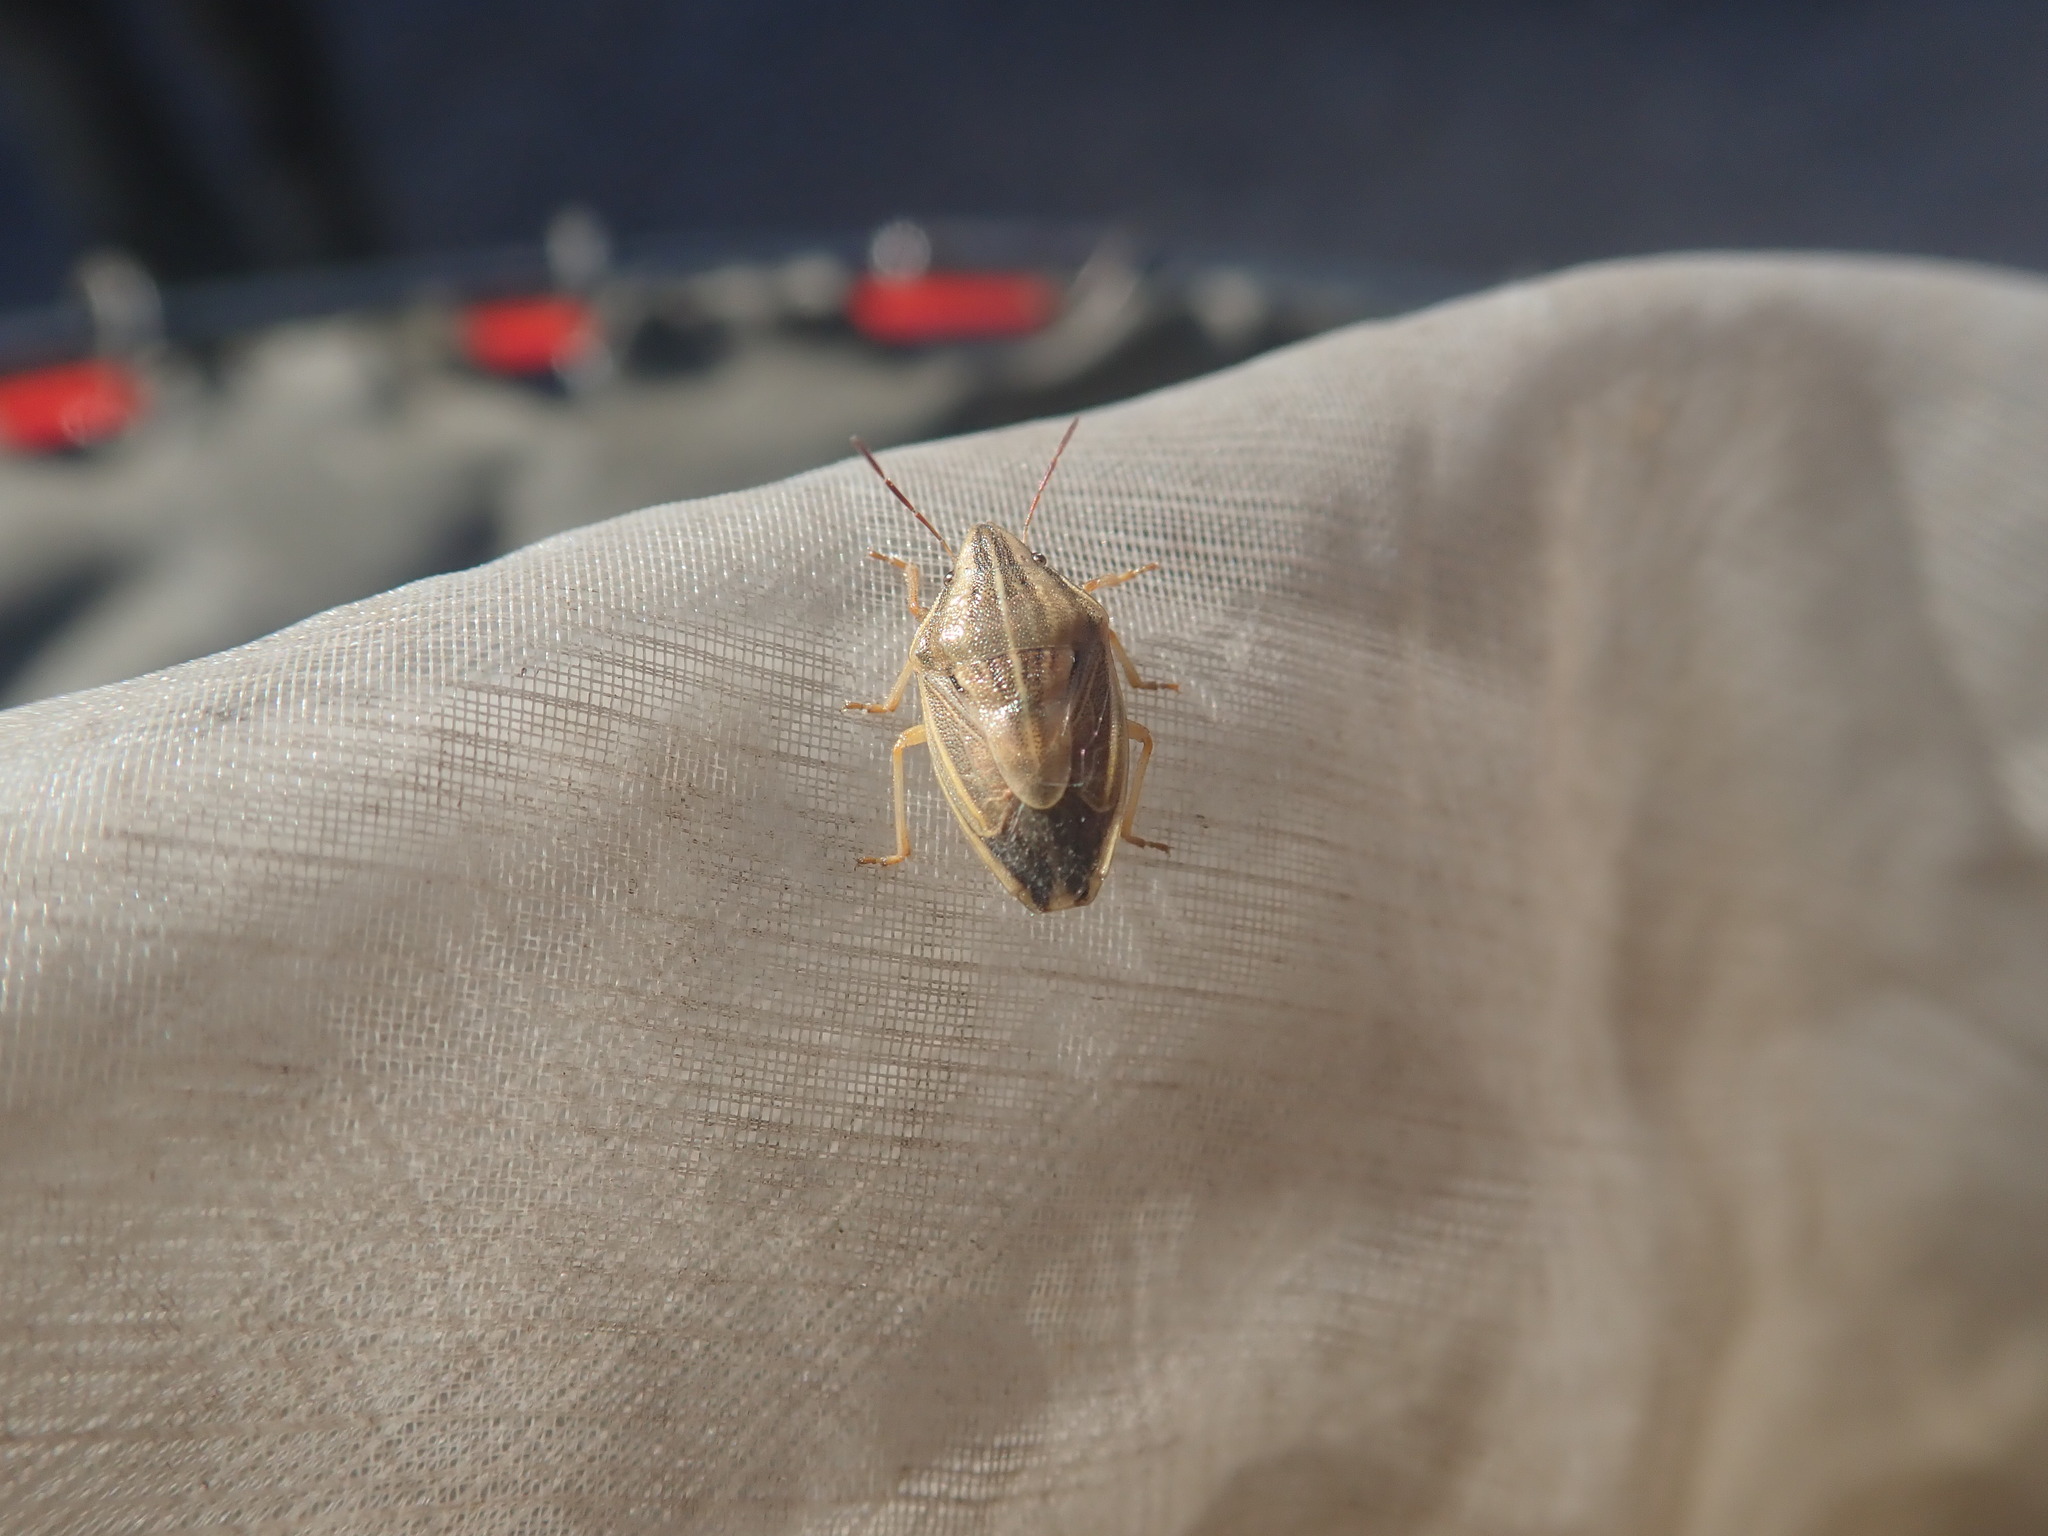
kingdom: Animalia
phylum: Arthropoda
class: Insecta
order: Hemiptera
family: Pentatomidae
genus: Aelia
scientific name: Aelia acuminata
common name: Bishop's mitre
